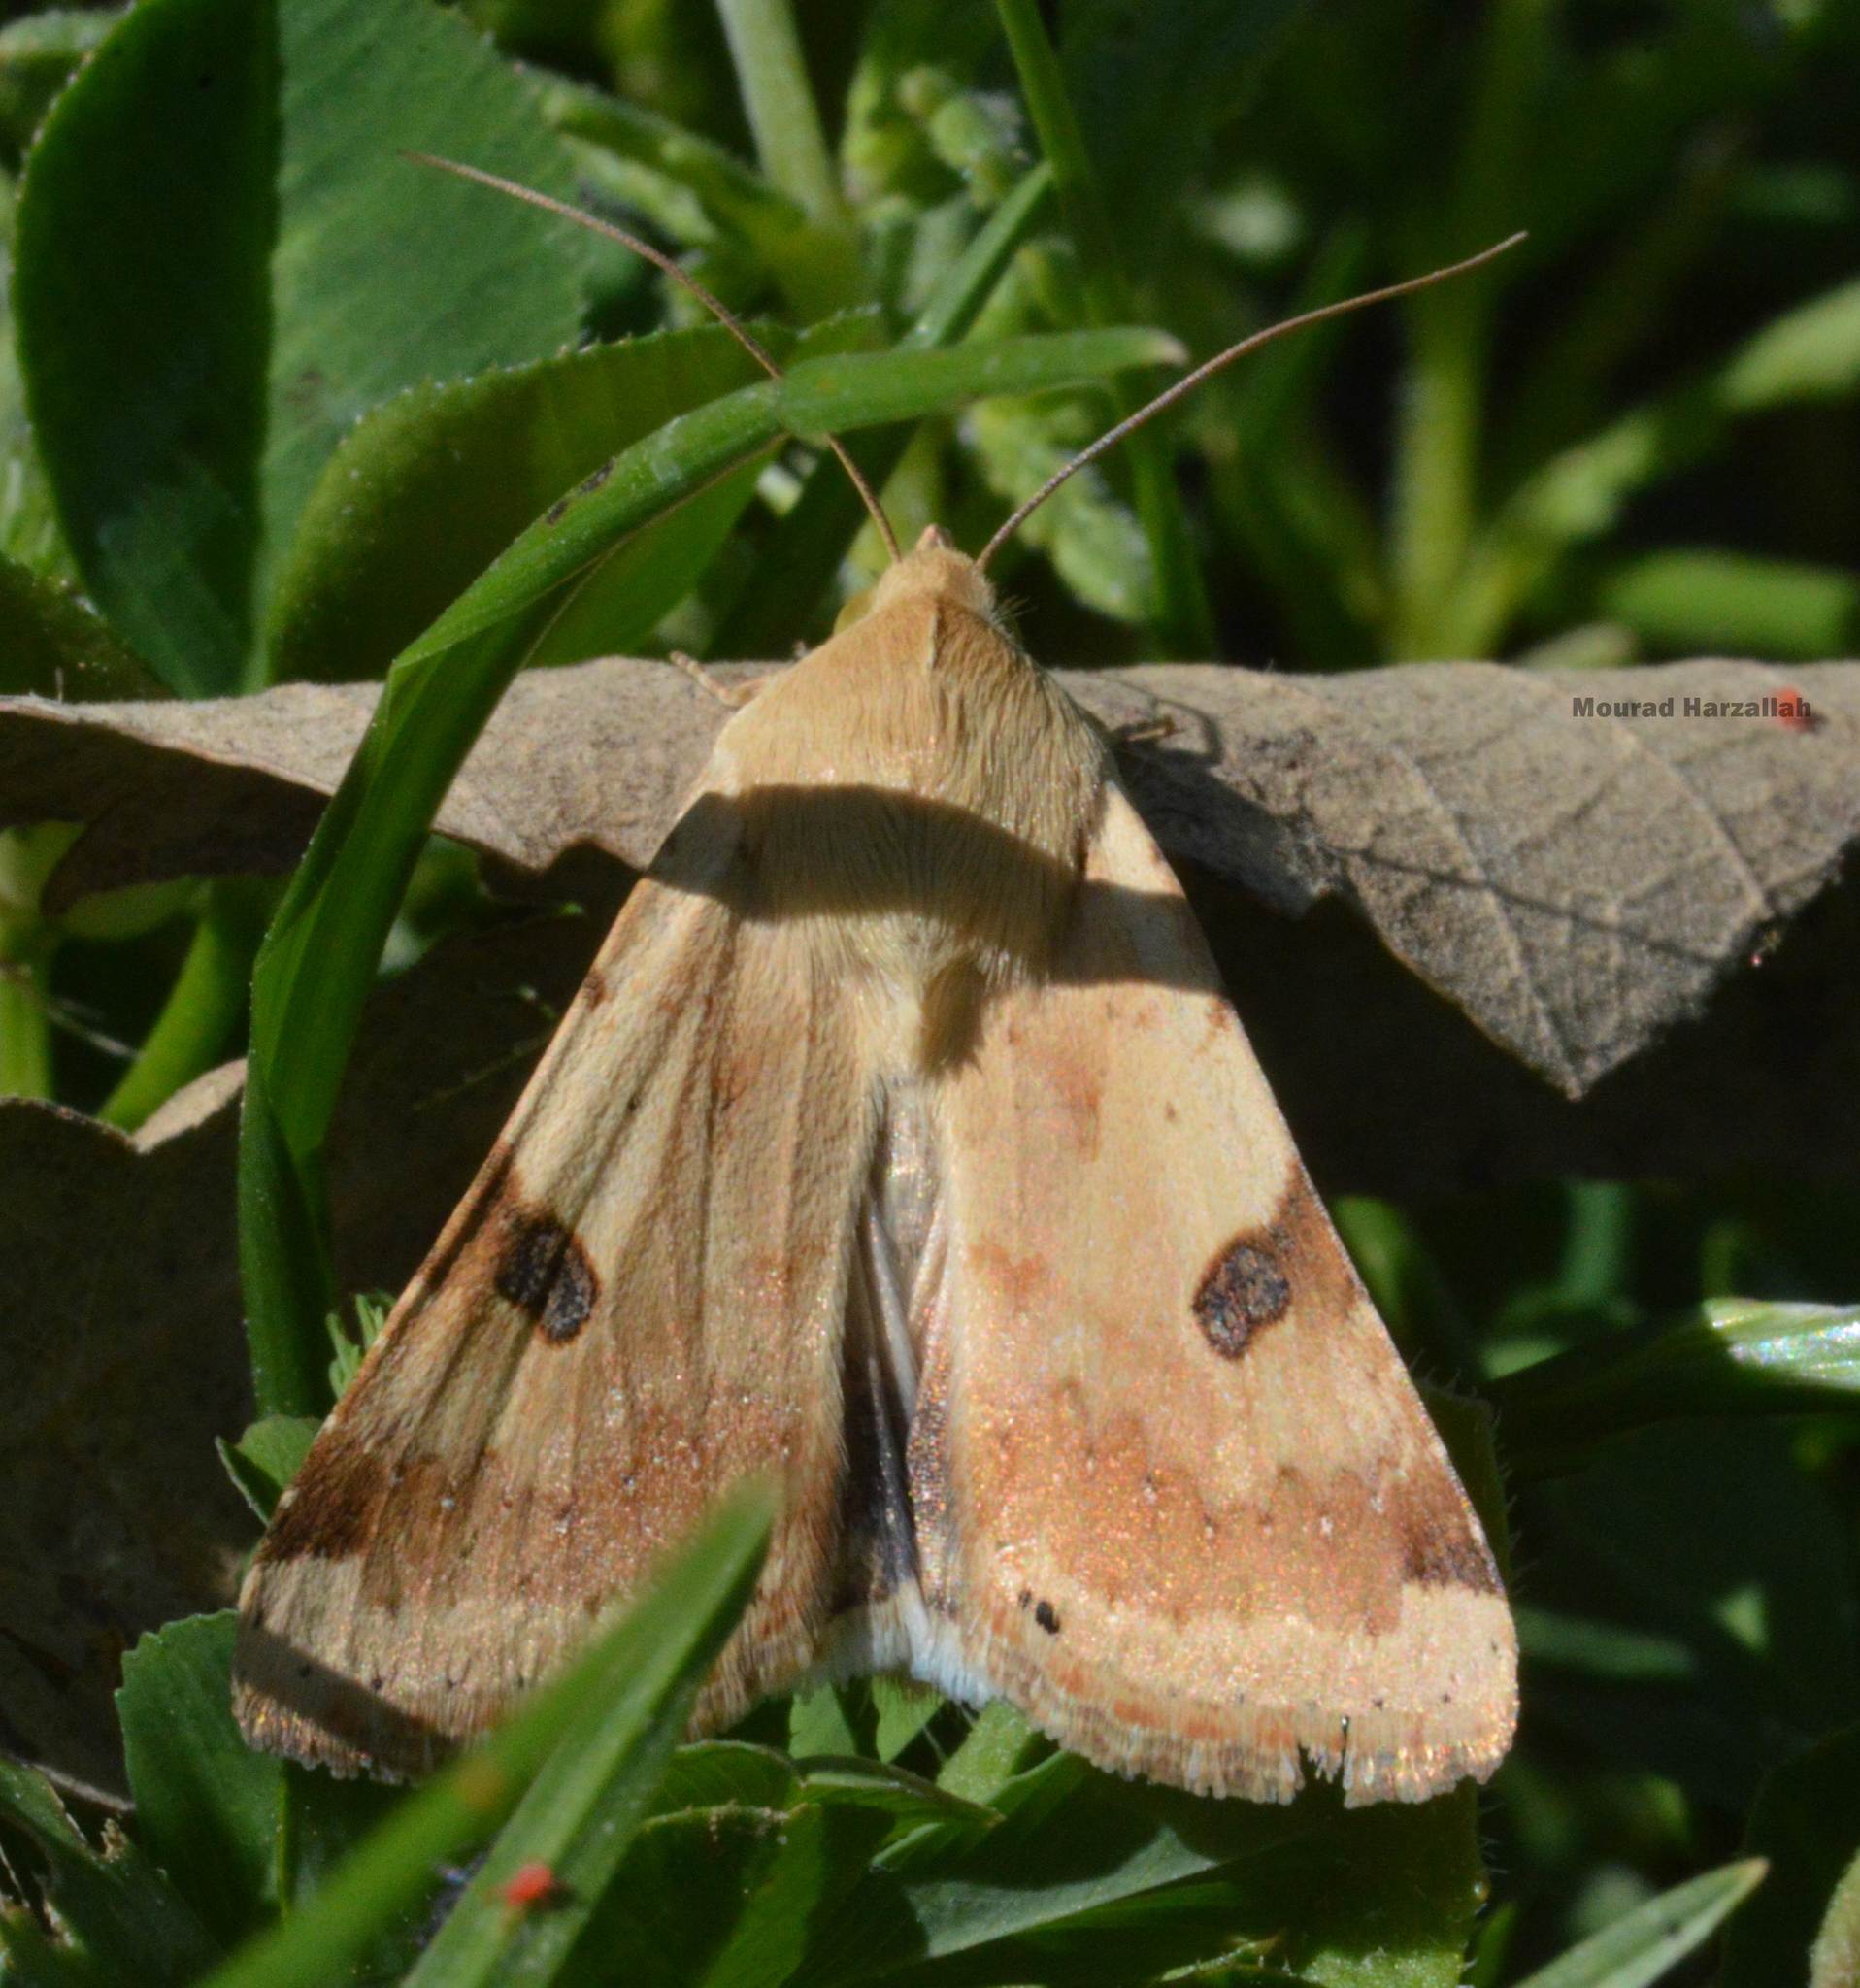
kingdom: Animalia
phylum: Arthropoda
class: Insecta
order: Lepidoptera
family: Noctuidae
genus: Heliothis
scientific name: Heliothis peltigera
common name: Bordered straw
